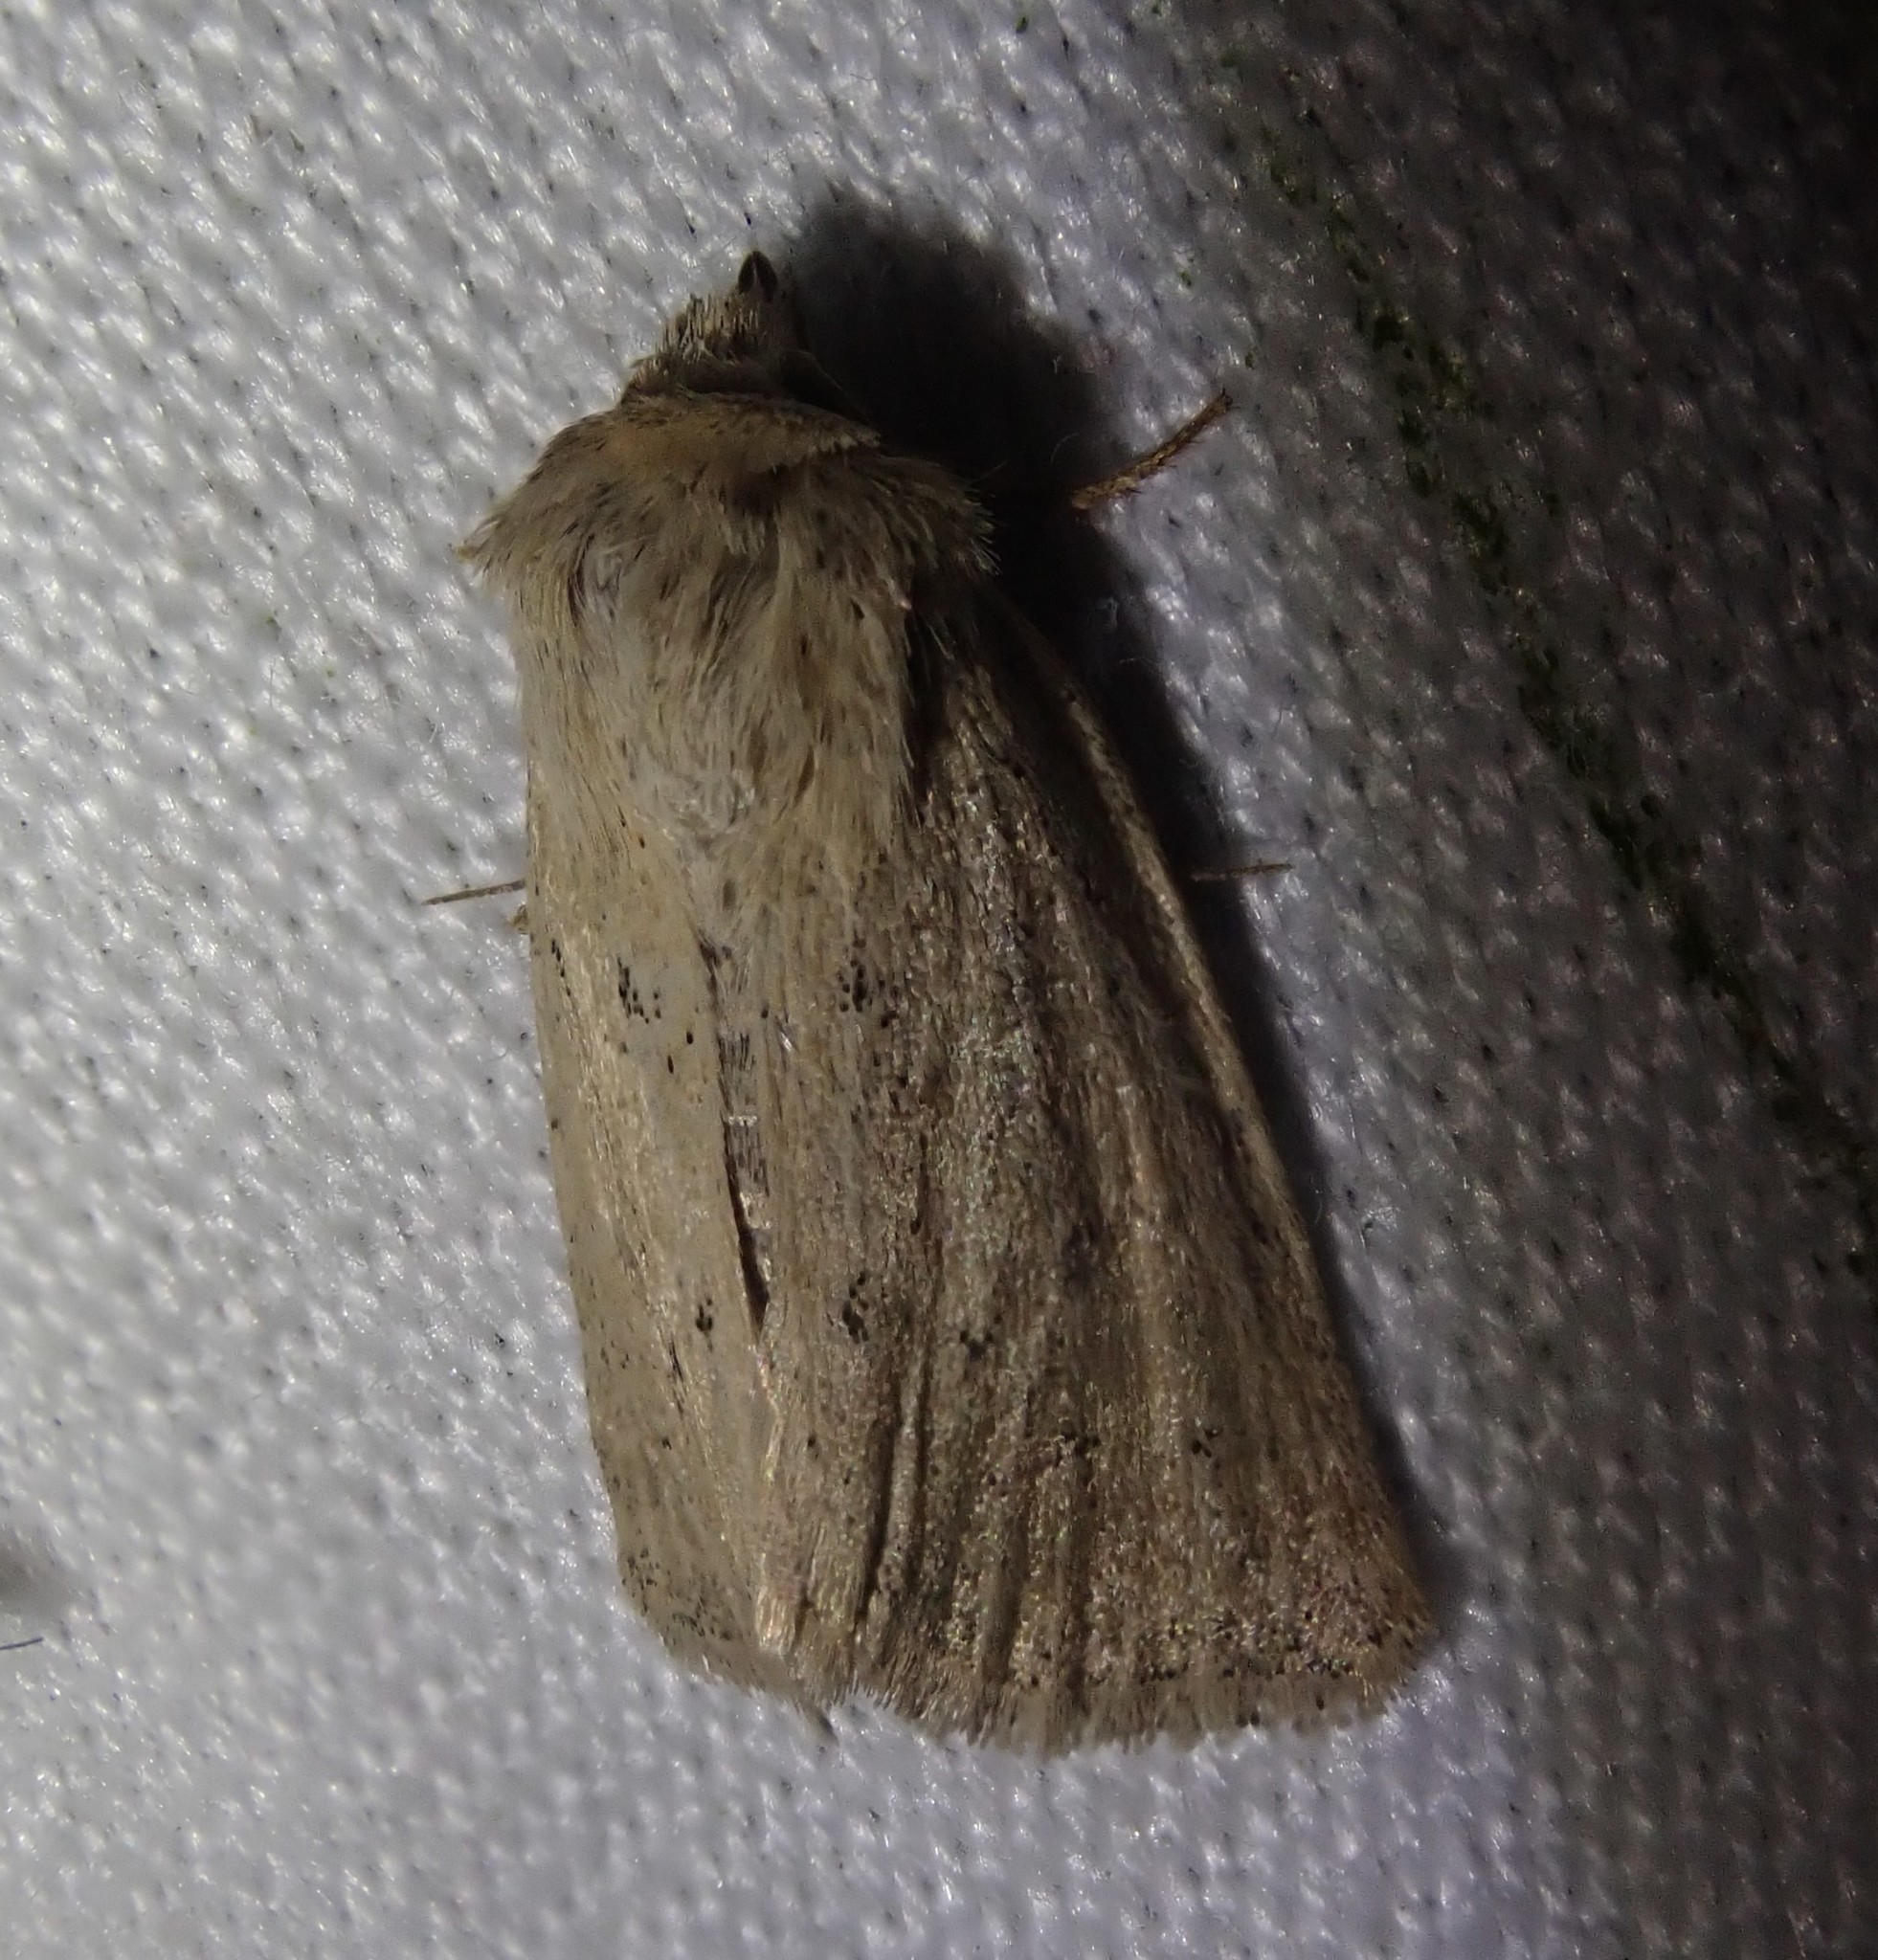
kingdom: Animalia
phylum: Arthropoda
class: Insecta
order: Lepidoptera
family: Noctuidae
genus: Photedes
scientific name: Photedes fluxa
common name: Mere wainscot
